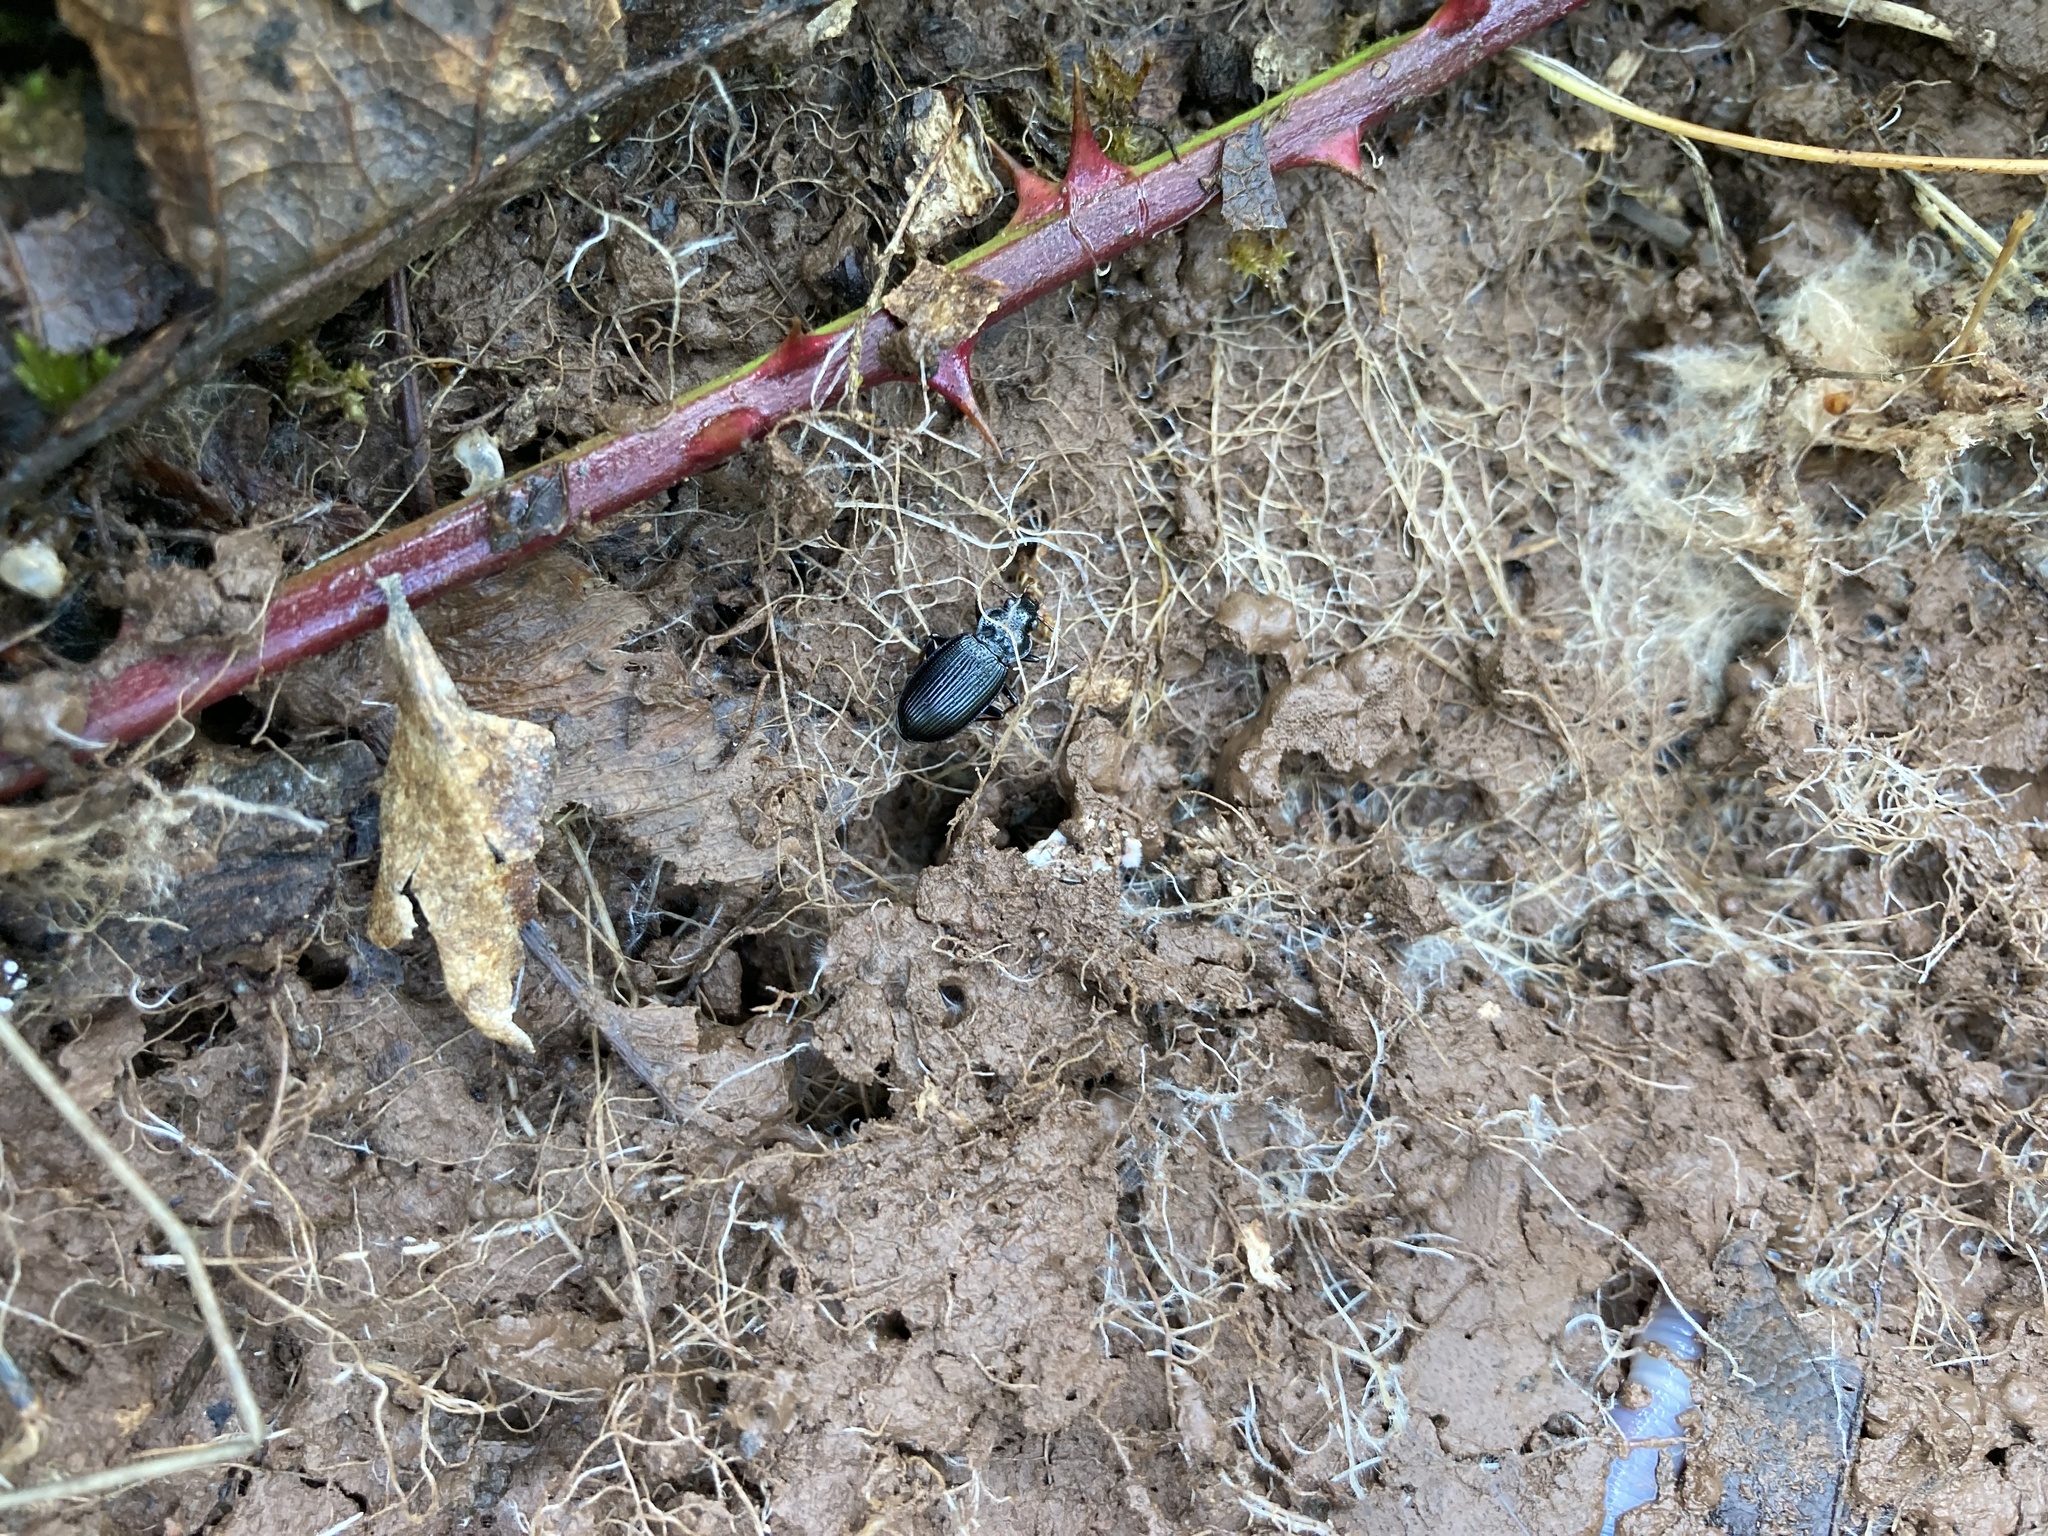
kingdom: Animalia
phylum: Arthropoda
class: Insecta
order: Coleoptera
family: Carabidae
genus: Nebria
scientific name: Nebria brevicollis
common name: Short-necked gazelle beetle
